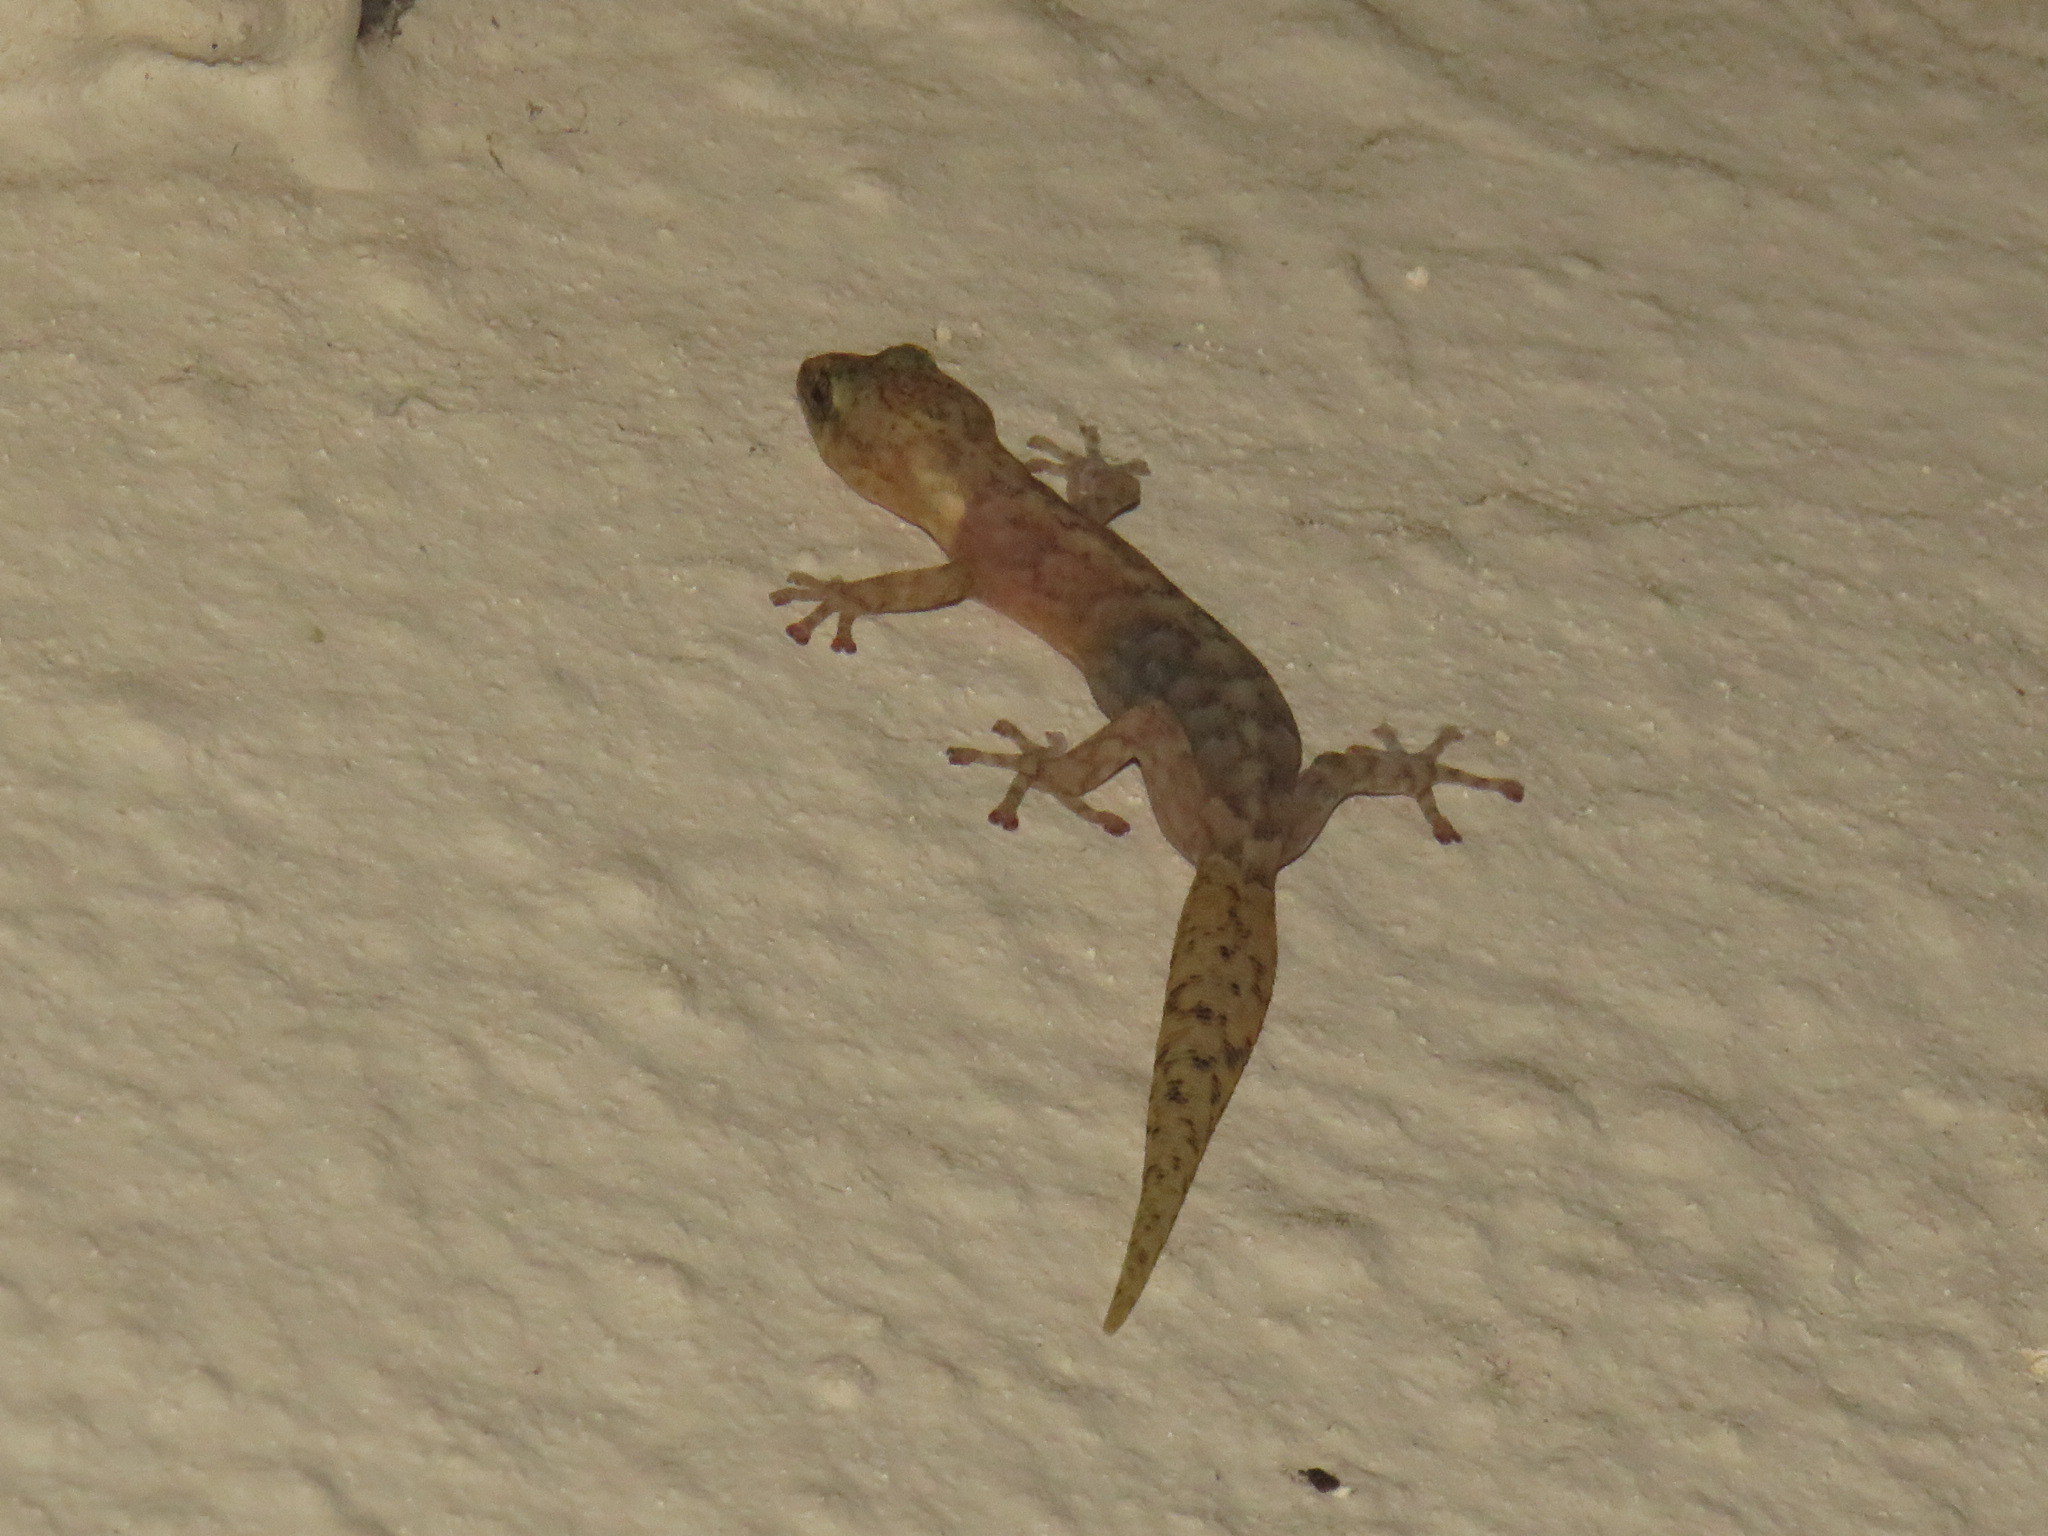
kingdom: Animalia
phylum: Chordata
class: Squamata
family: Gekkonidae
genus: Afrogecko
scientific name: Afrogecko porphyreus
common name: Marbled leaf-toed gecko
